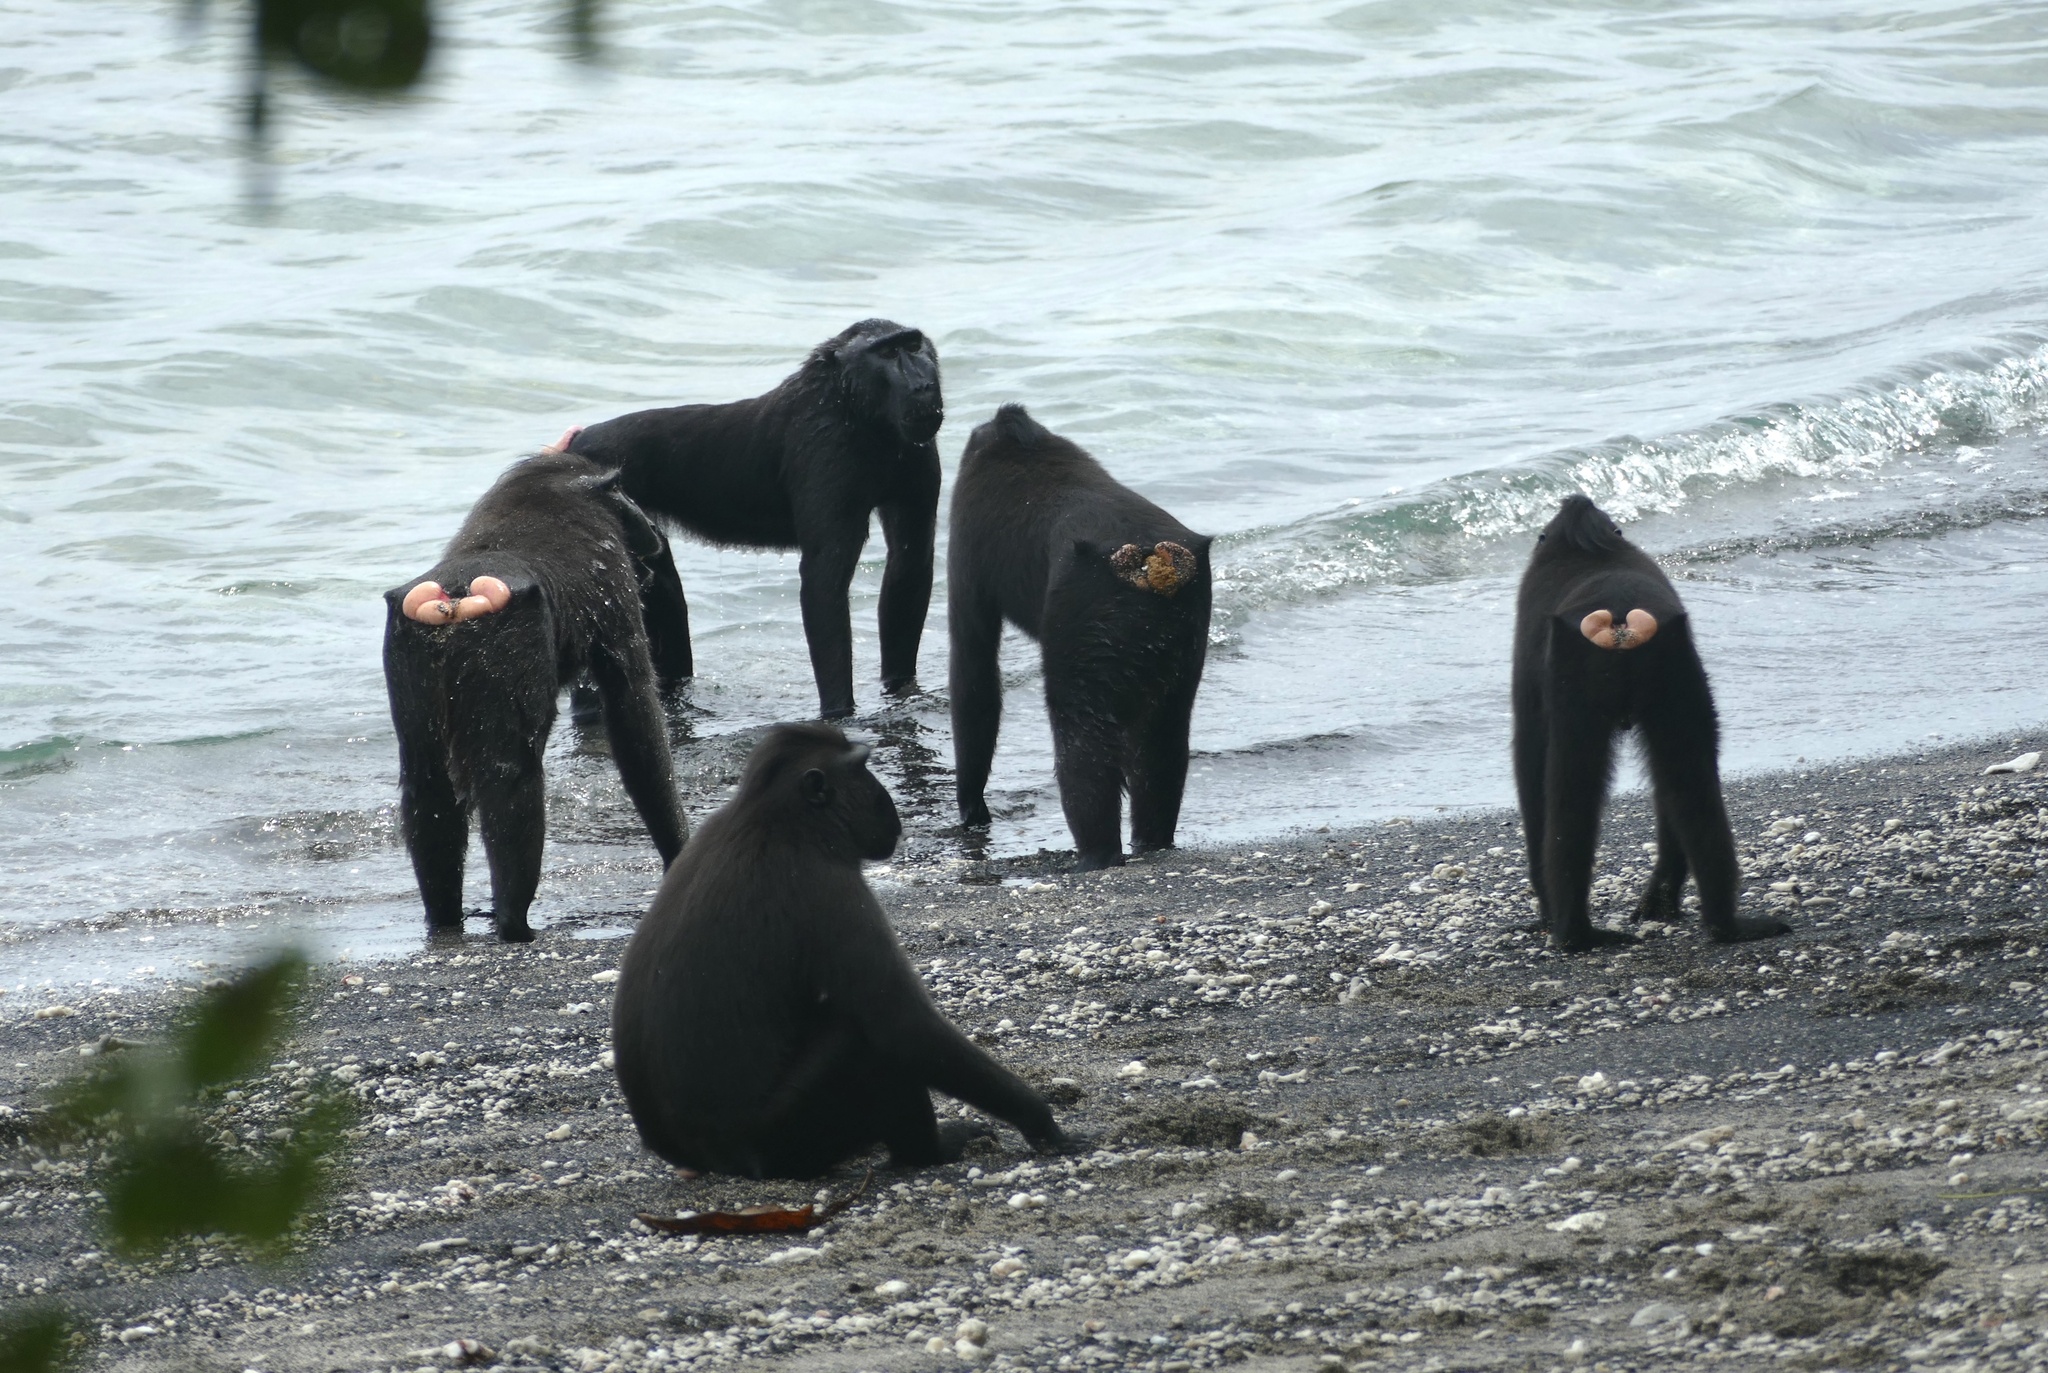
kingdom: Animalia
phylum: Chordata
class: Mammalia
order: Primates
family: Cercopithecidae
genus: Macaca
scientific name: Macaca nigra
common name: Celebes crested macaque
